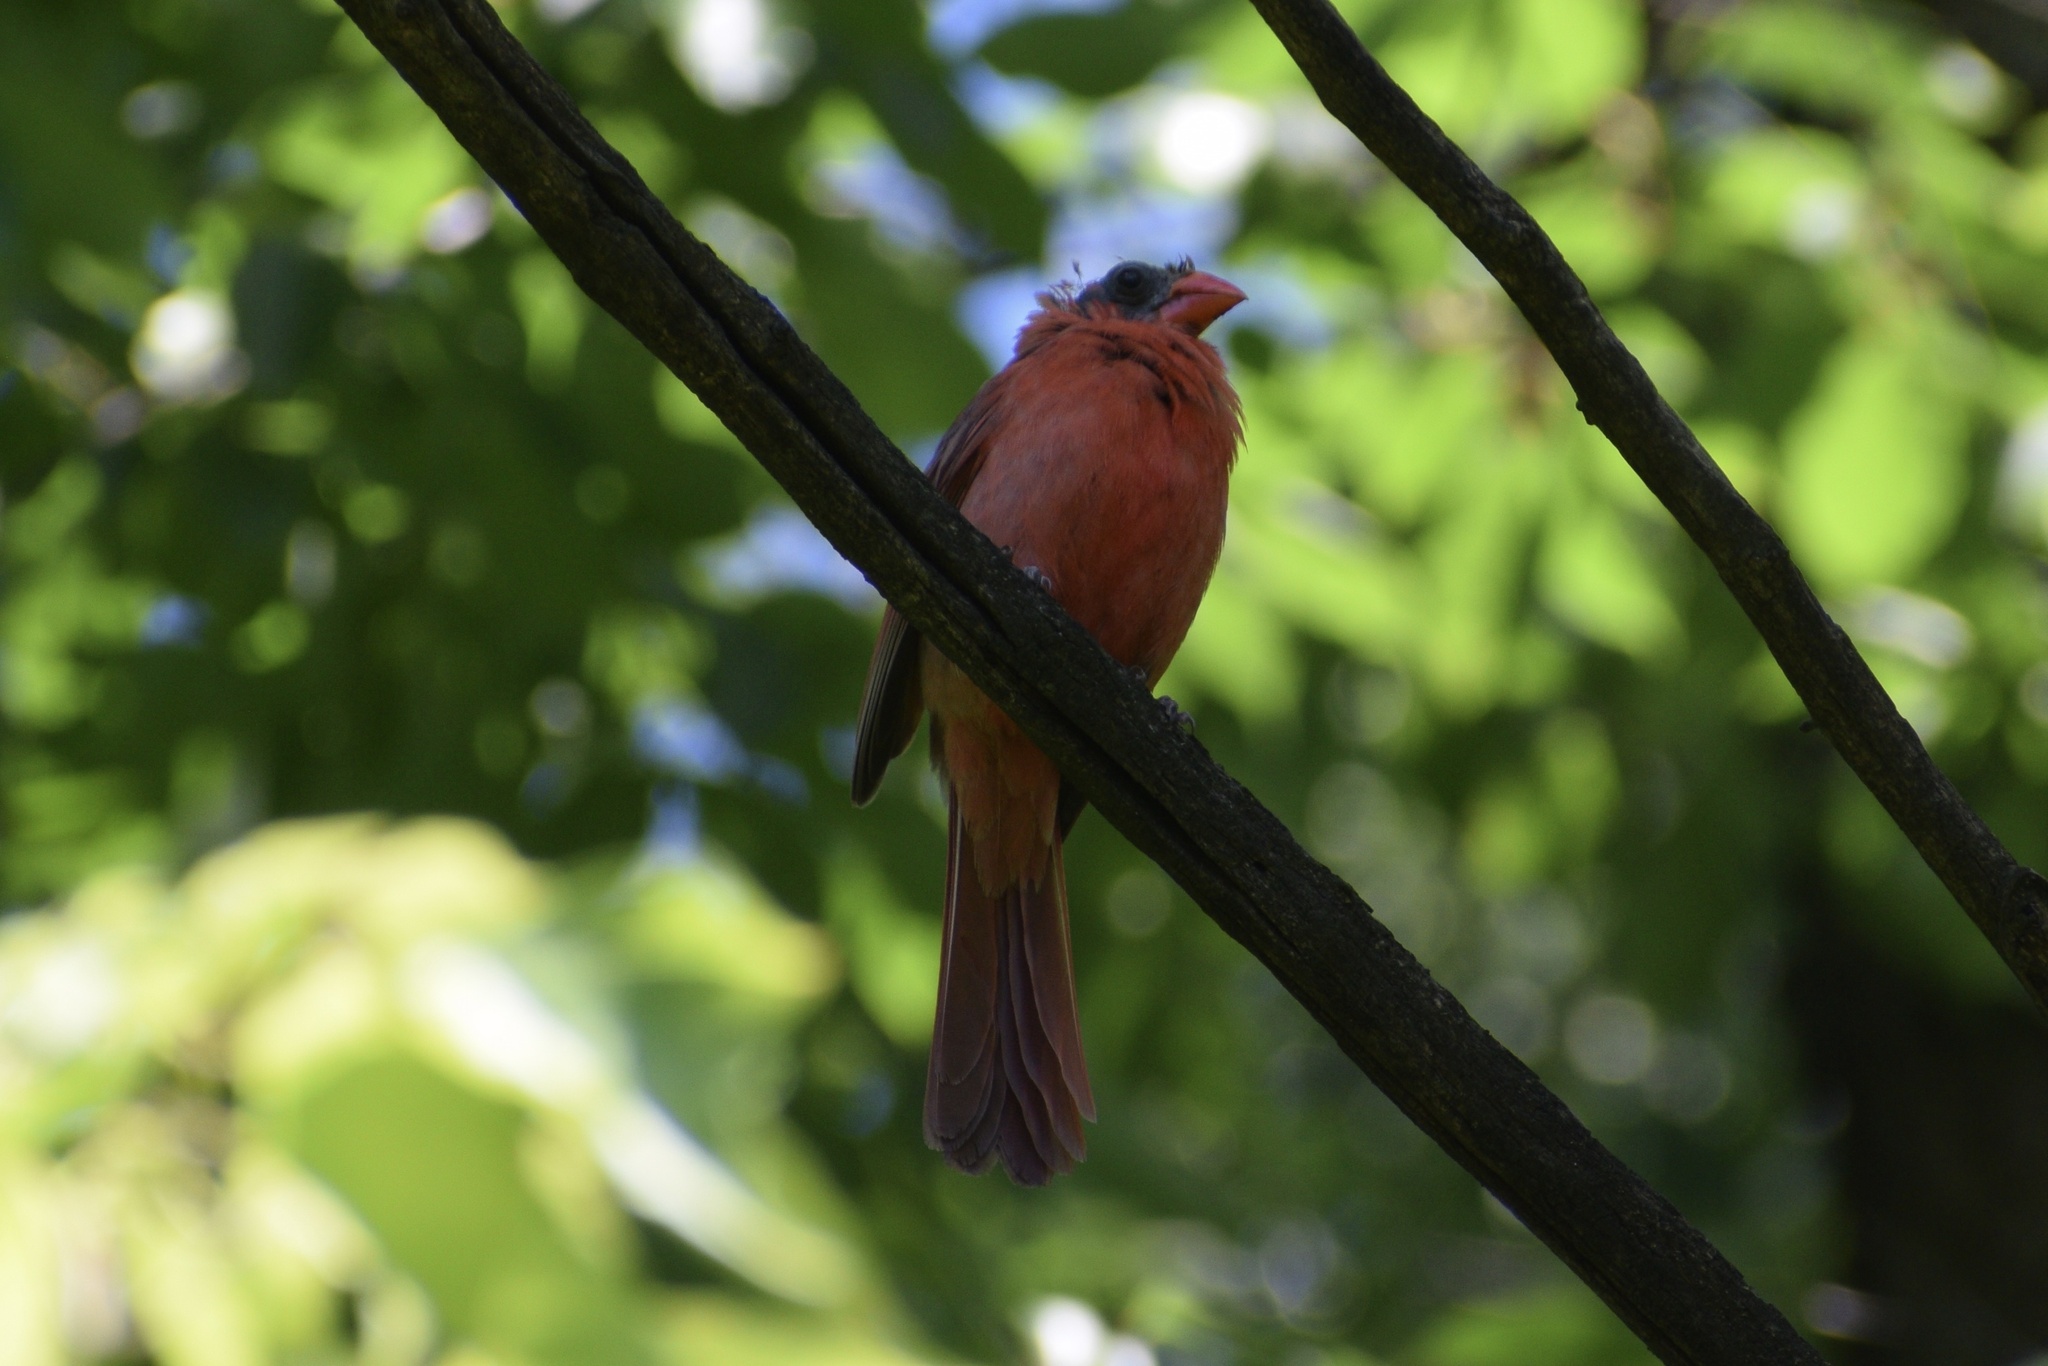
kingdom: Animalia
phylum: Chordata
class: Aves
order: Passeriformes
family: Cardinalidae
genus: Cardinalis
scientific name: Cardinalis cardinalis
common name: Northern cardinal
